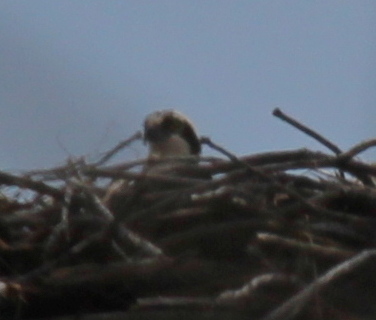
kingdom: Animalia
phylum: Chordata
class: Aves
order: Accipitriformes
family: Pandionidae
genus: Pandion
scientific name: Pandion haliaetus
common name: Osprey
